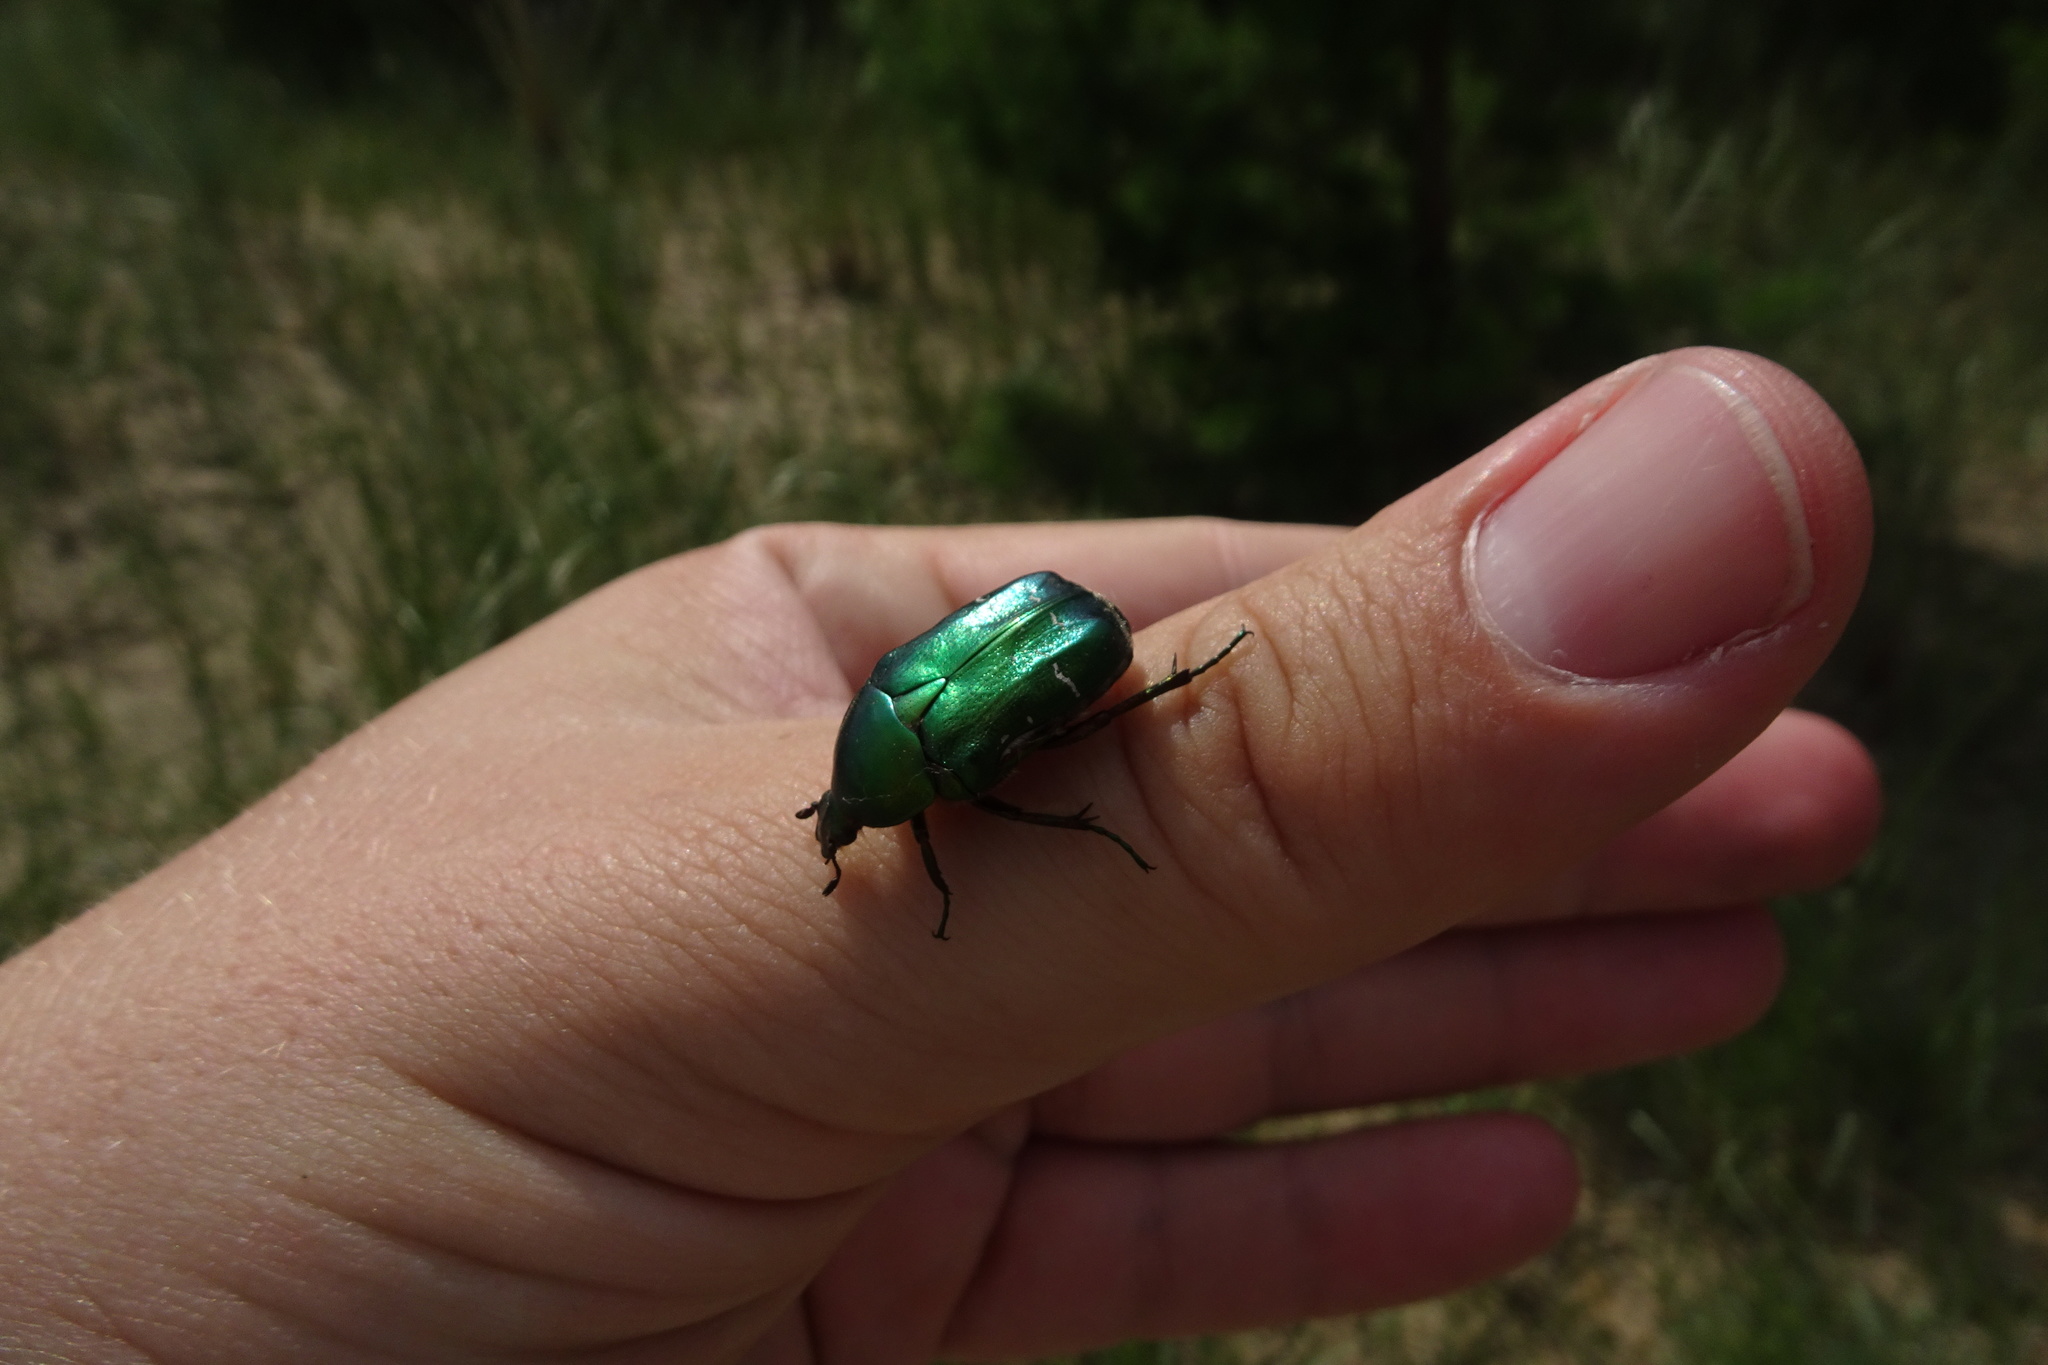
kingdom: Animalia
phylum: Arthropoda
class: Insecta
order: Coleoptera
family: Scarabaeidae
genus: Cetonia
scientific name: Cetonia aurata
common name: Rose chafer
